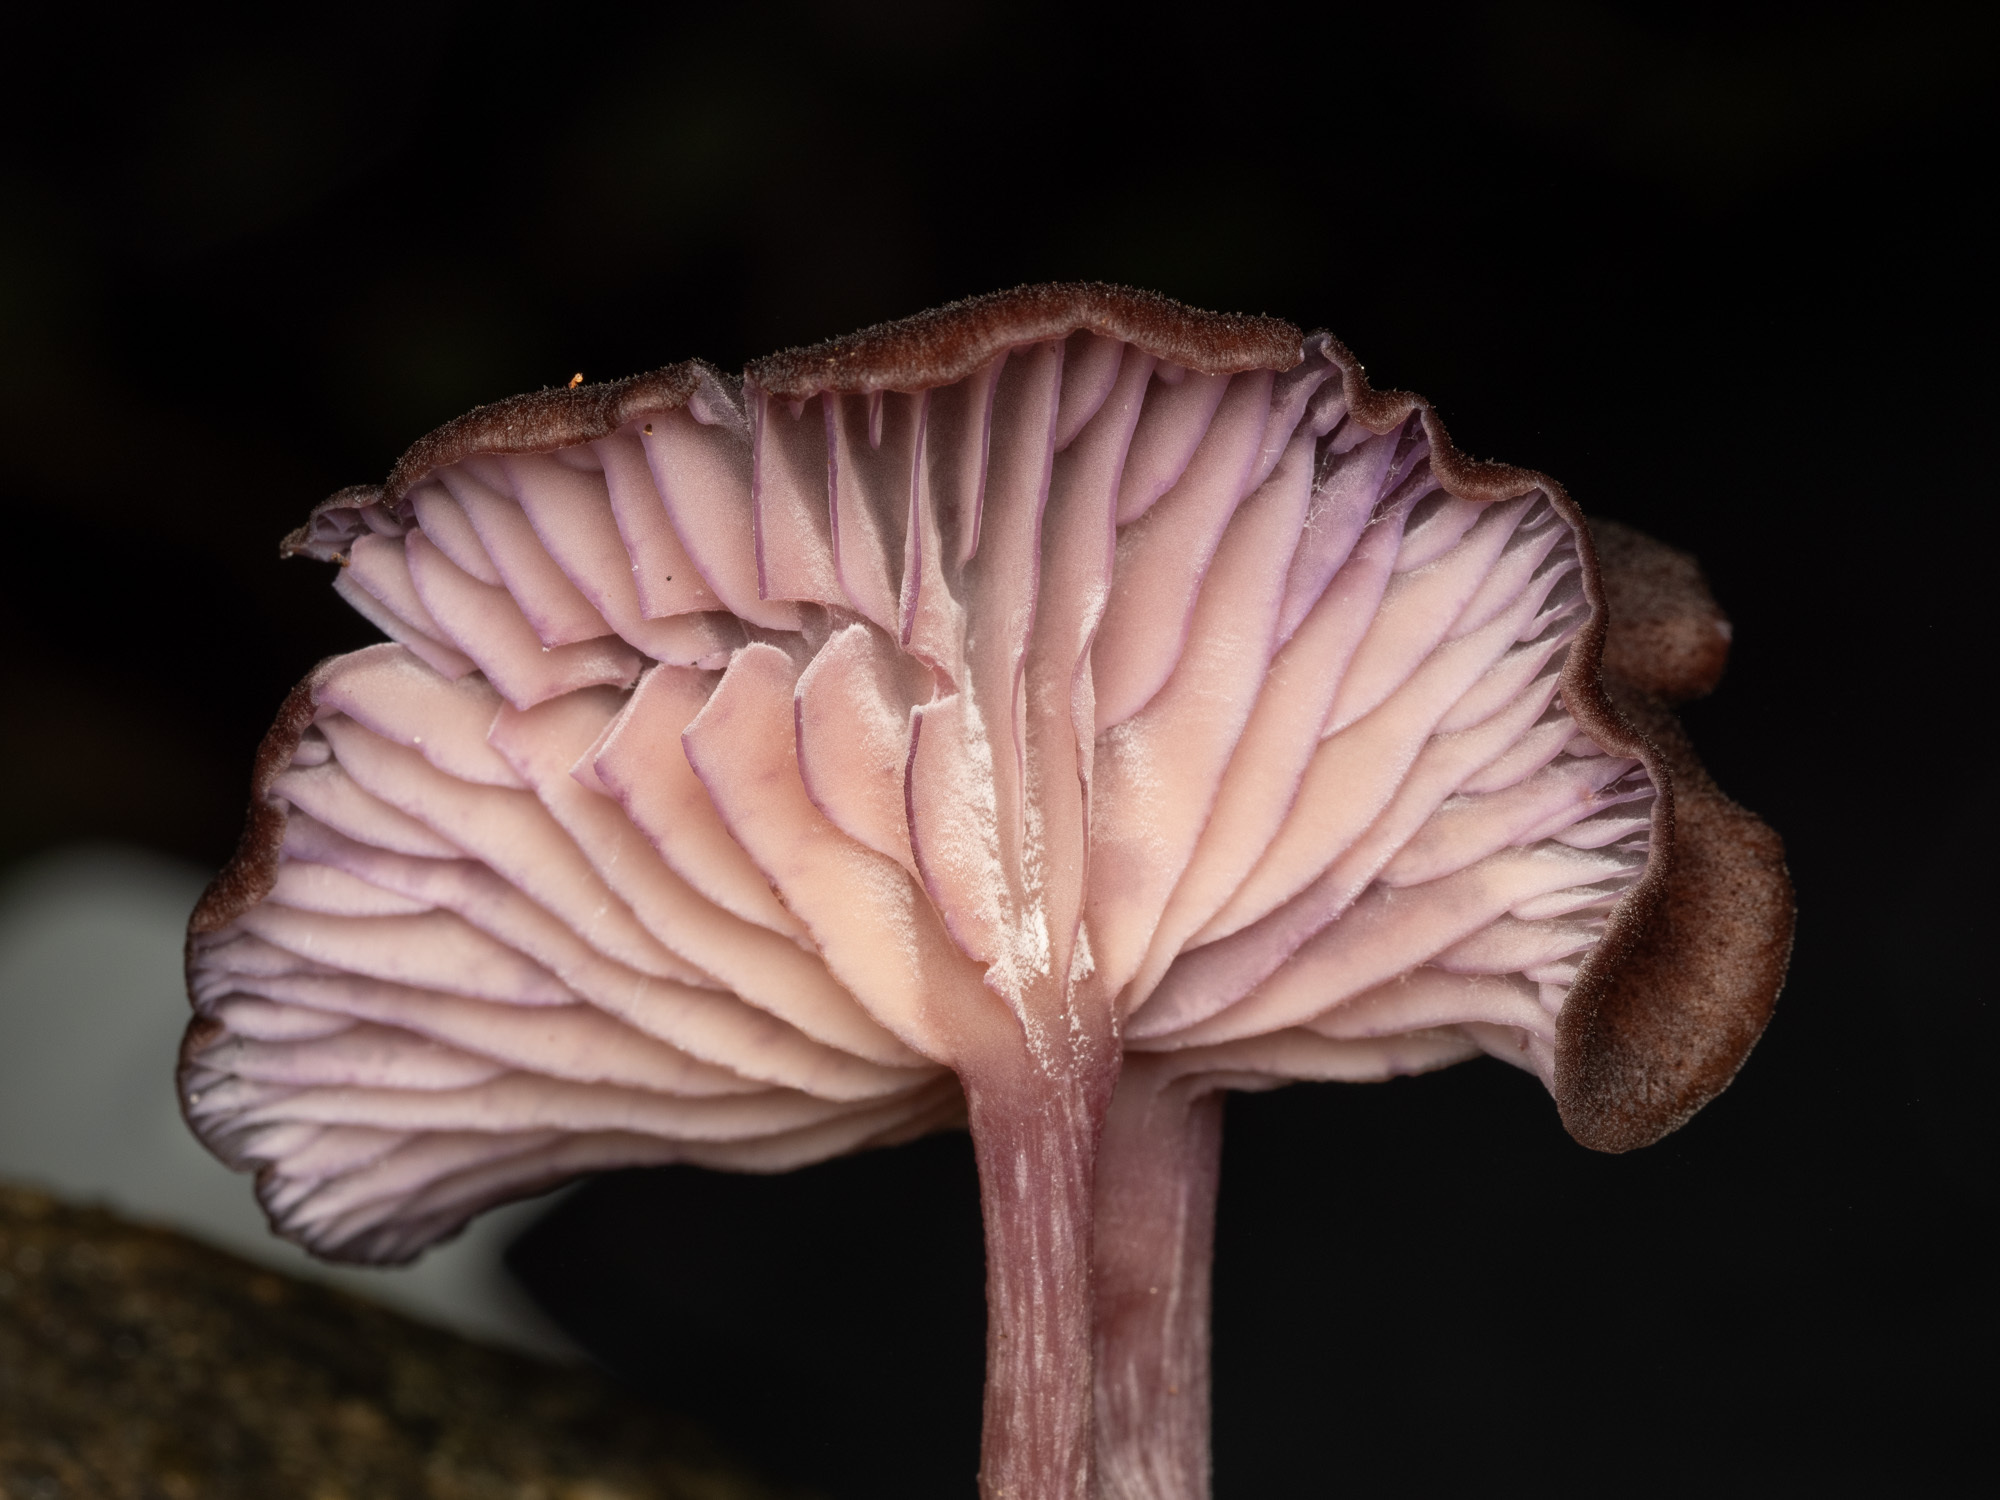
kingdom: Fungi
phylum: Basidiomycota
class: Agaricomycetes
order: Agaricales
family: Hydnangiaceae
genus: Laccaria
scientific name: Laccaria violaceonigra
